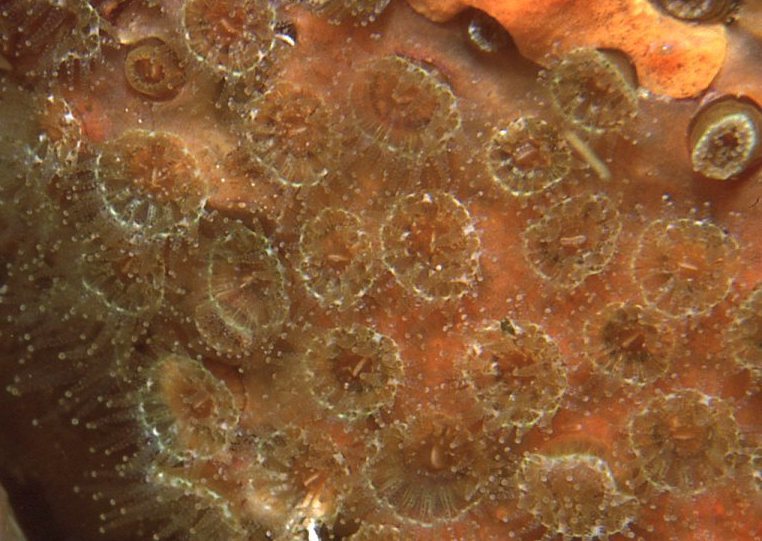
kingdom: Animalia
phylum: Cnidaria
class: Anthozoa
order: Scleractinia
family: Rhizangiidae
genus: Culicia
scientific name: Culicia tenella
